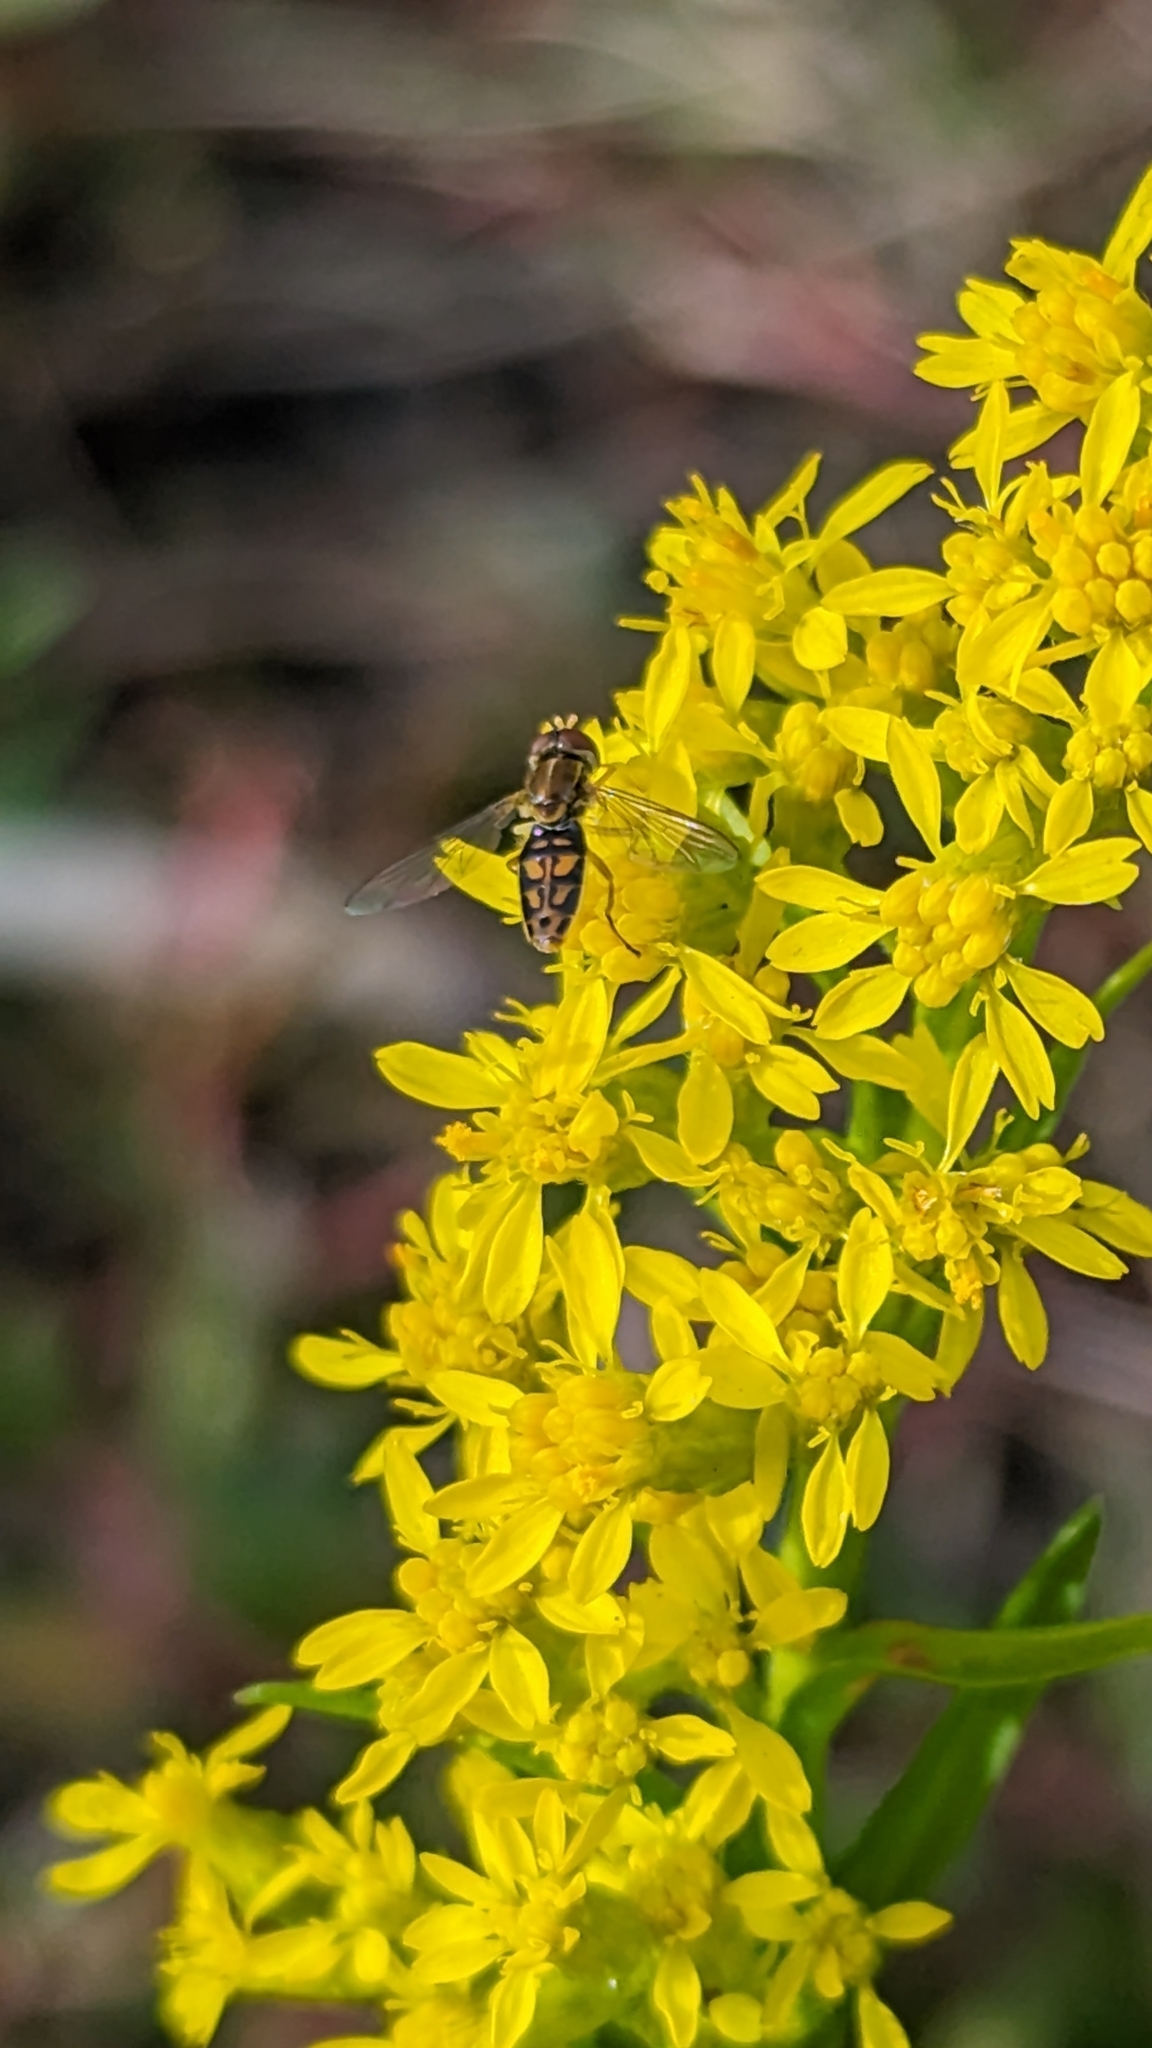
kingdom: Animalia
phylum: Arthropoda
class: Insecta
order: Diptera
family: Syrphidae
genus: Toxomerus
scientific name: Toxomerus marginatus
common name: Syrphid fly
